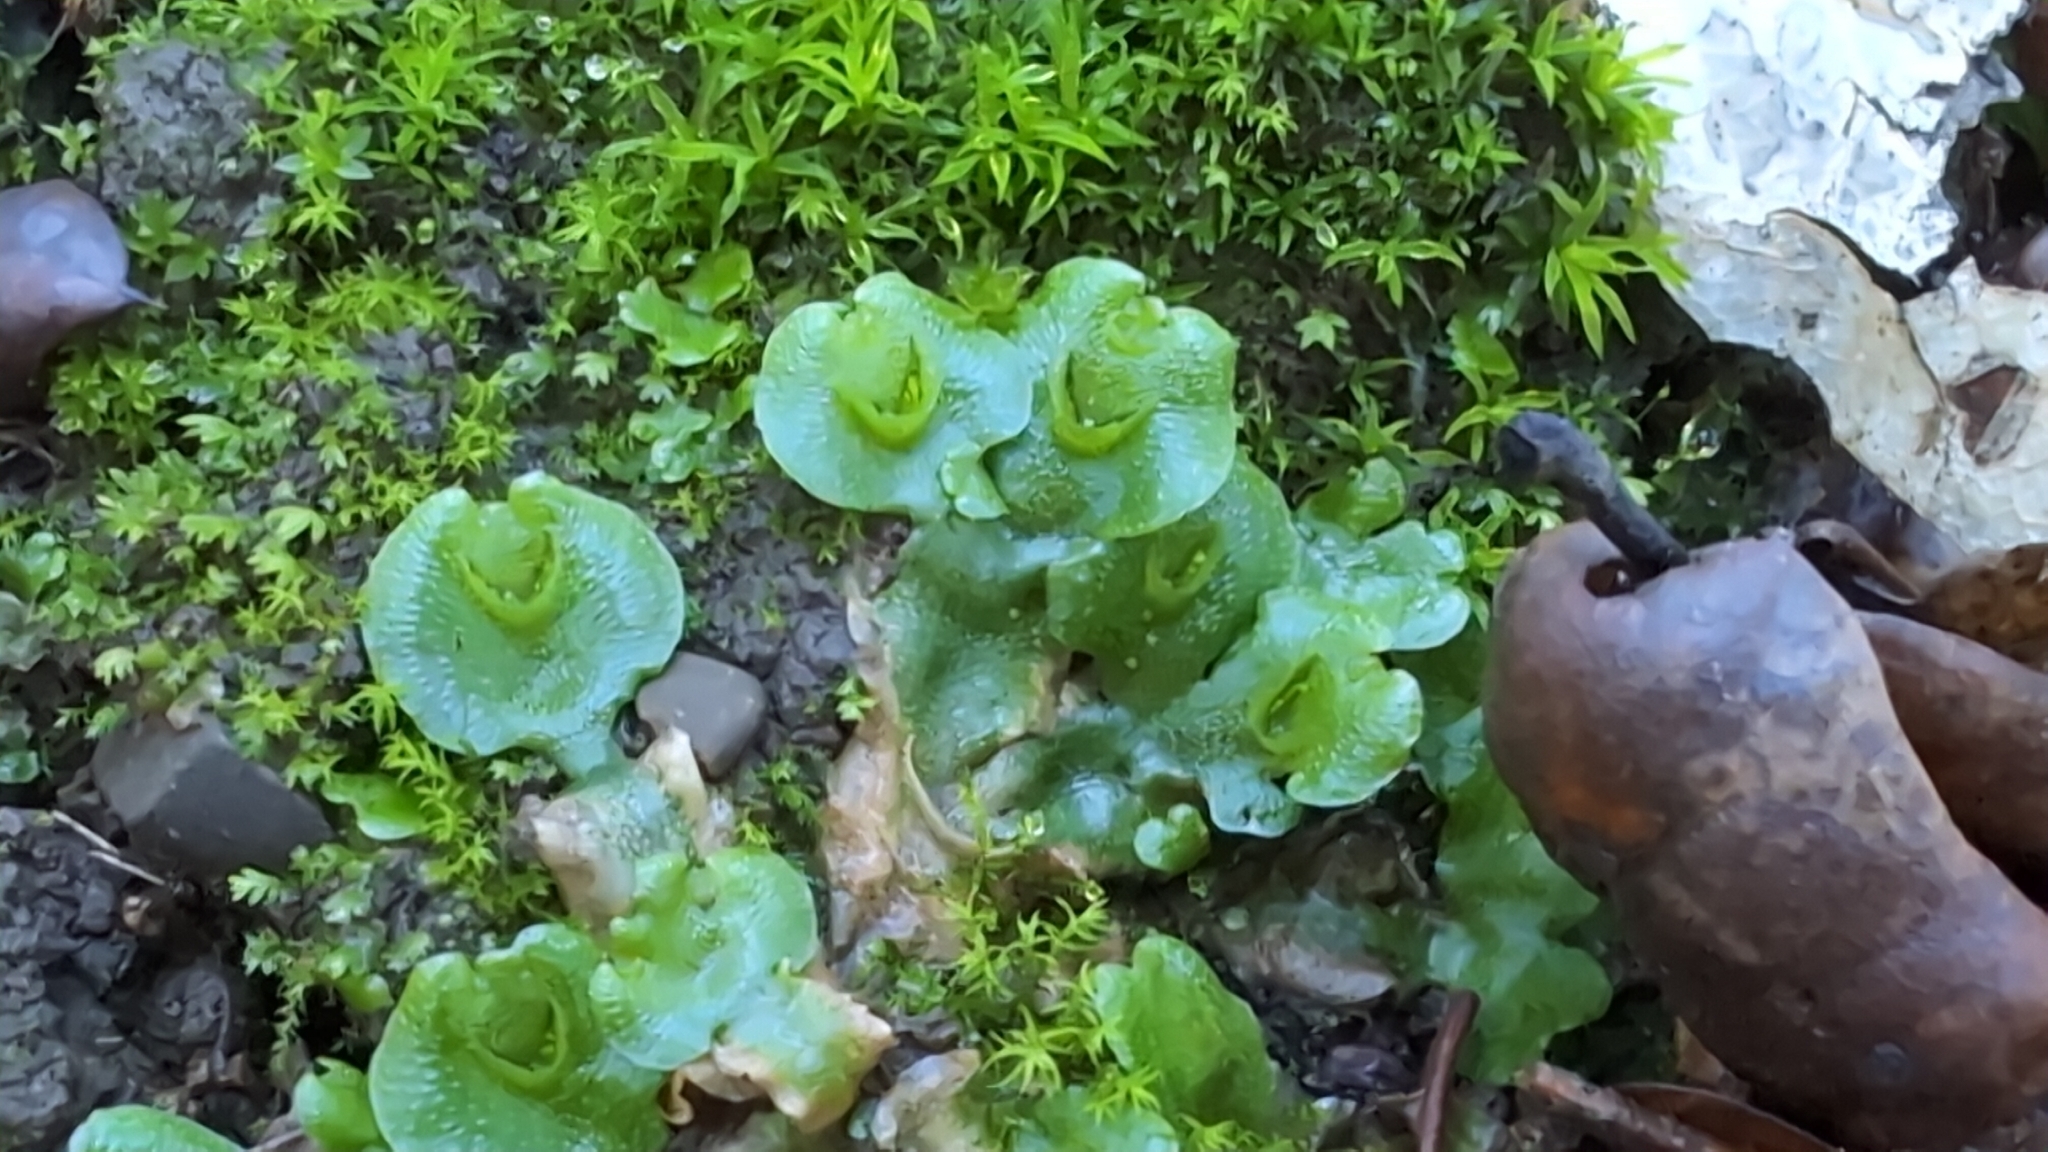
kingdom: Plantae
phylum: Marchantiophyta
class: Marchantiopsida
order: Lunulariales
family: Lunulariaceae
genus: Lunularia
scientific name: Lunularia cruciata
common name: Crescent-cup liverwort
